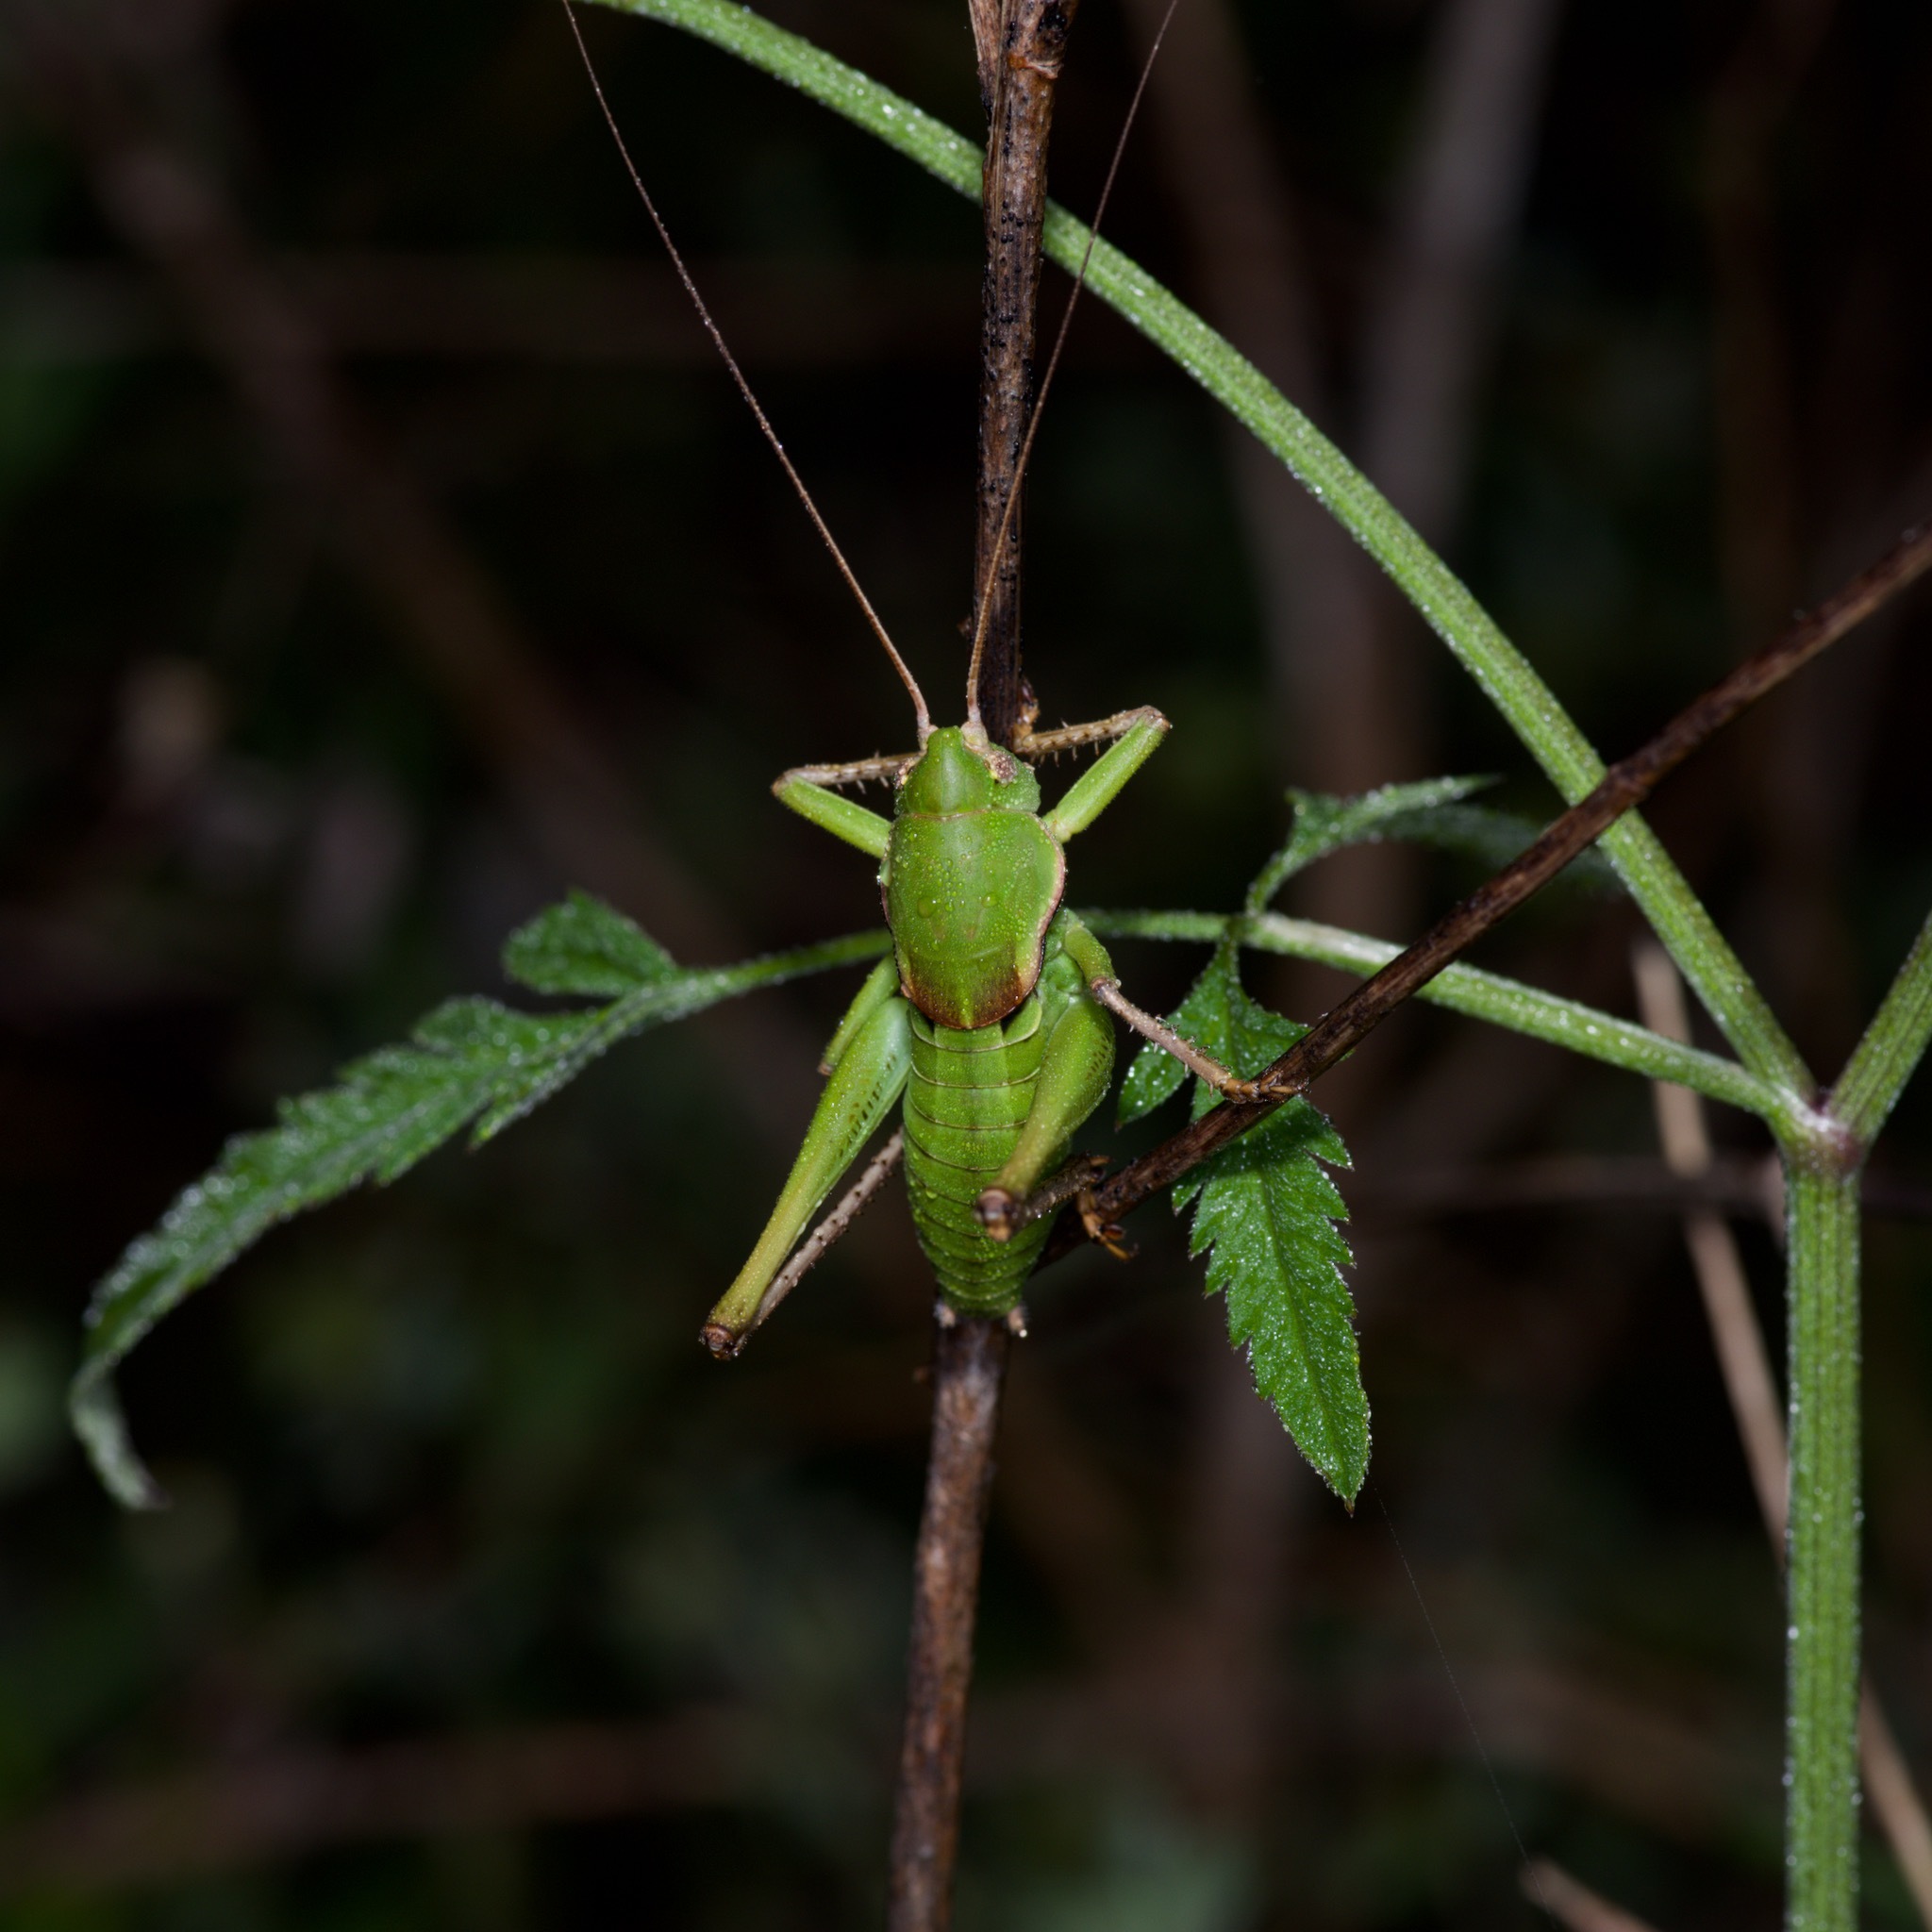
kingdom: Animalia
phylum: Arthropoda
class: Insecta
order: Orthoptera
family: Tettigoniidae
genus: Pediodectes
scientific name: Pediodectes haldemanii
